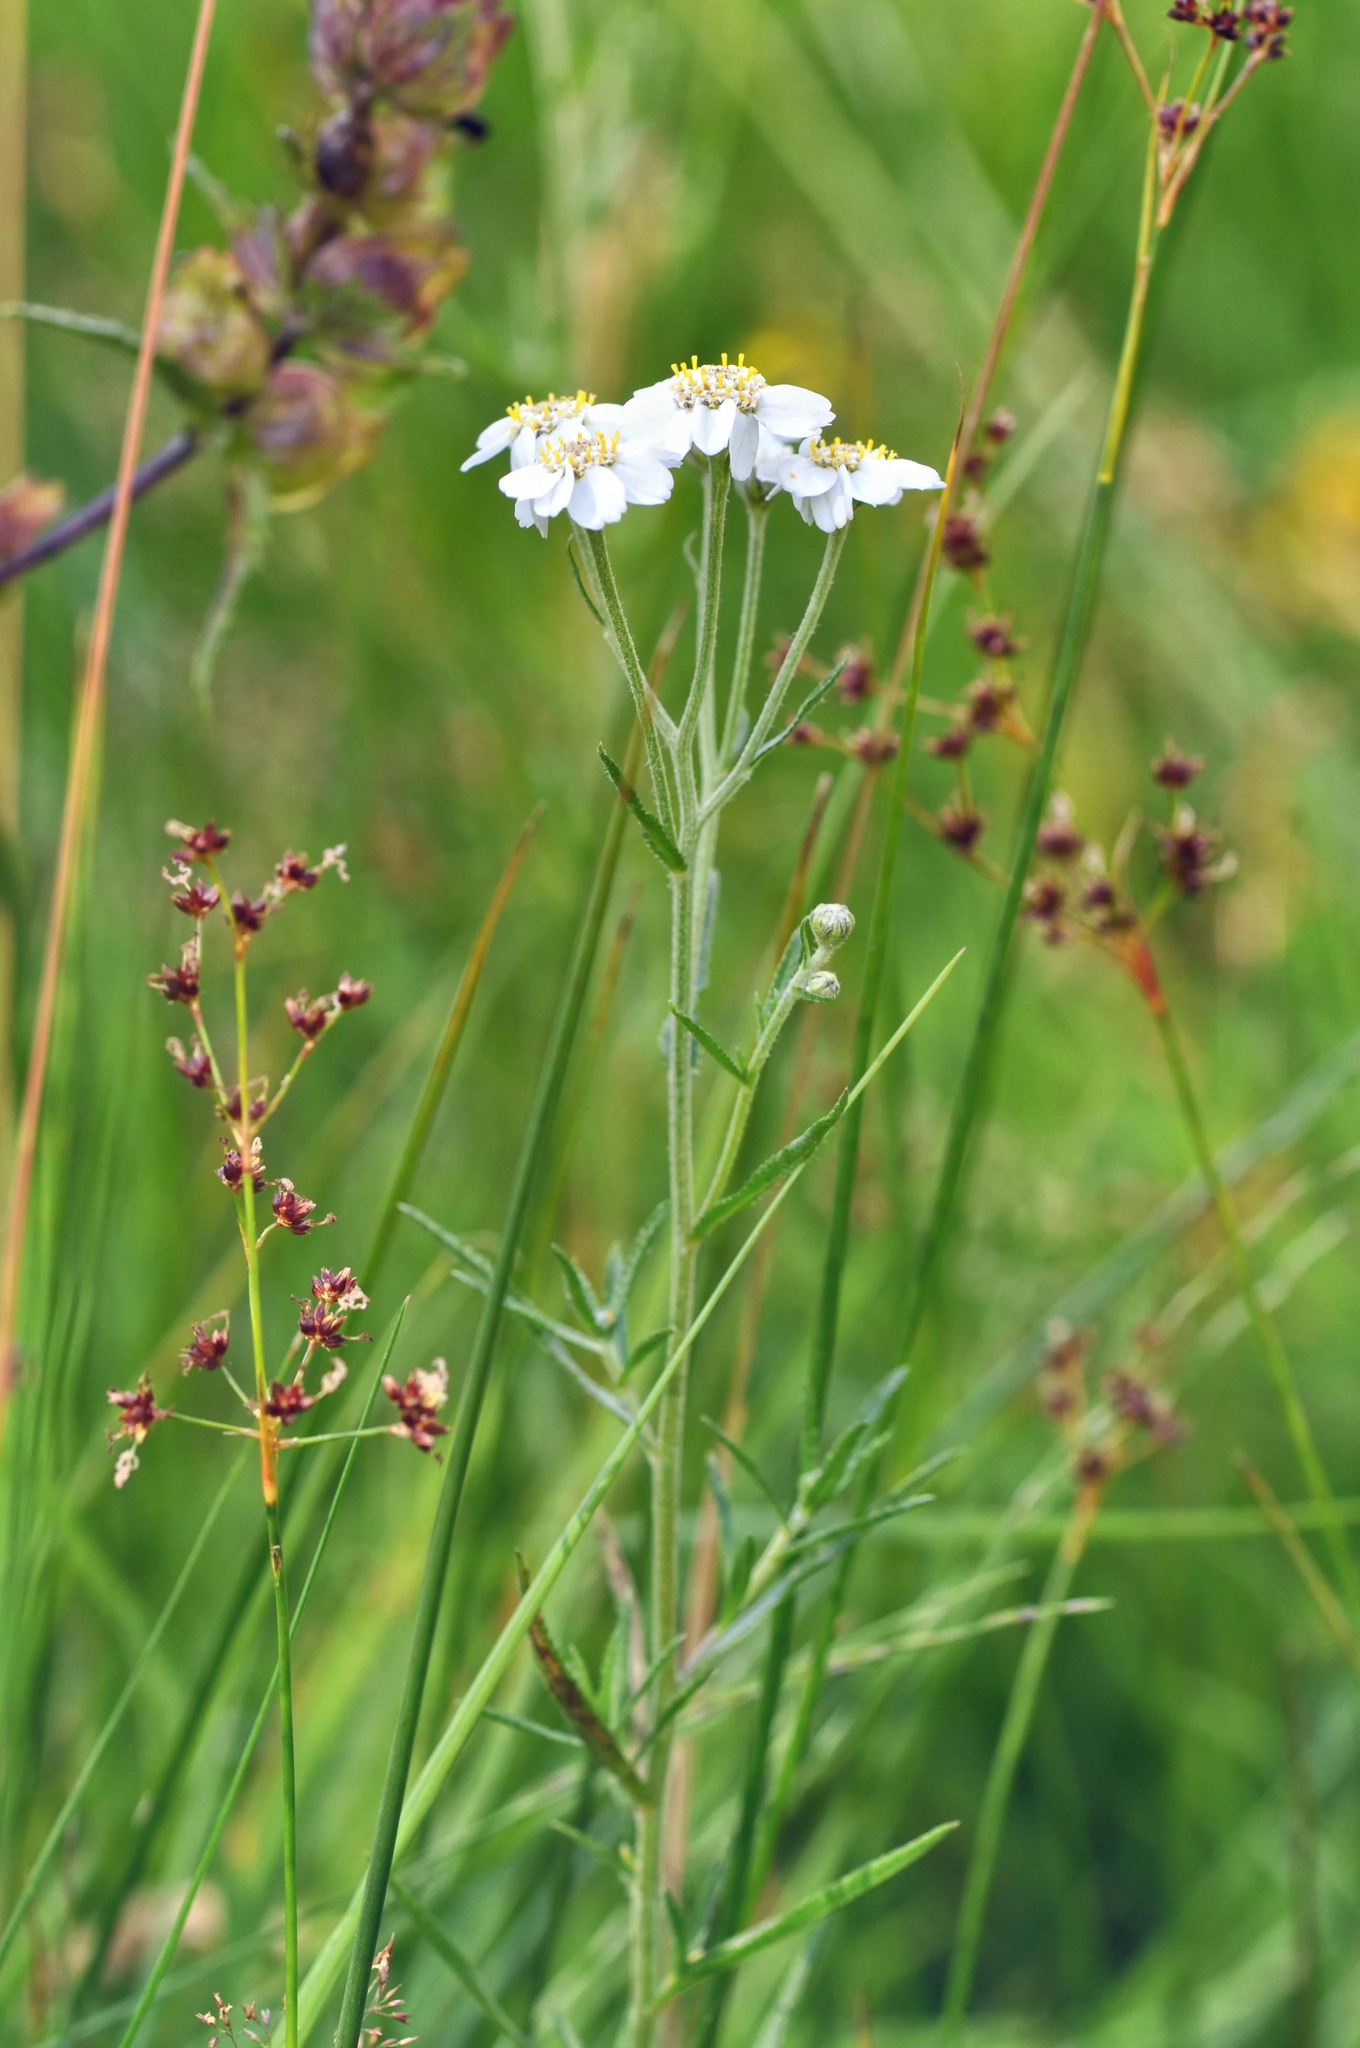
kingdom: Plantae
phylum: Tracheophyta
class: Magnoliopsida
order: Asterales
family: Asteraceae
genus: Achillea
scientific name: Achillea ptarmica
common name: Sneezeweed
